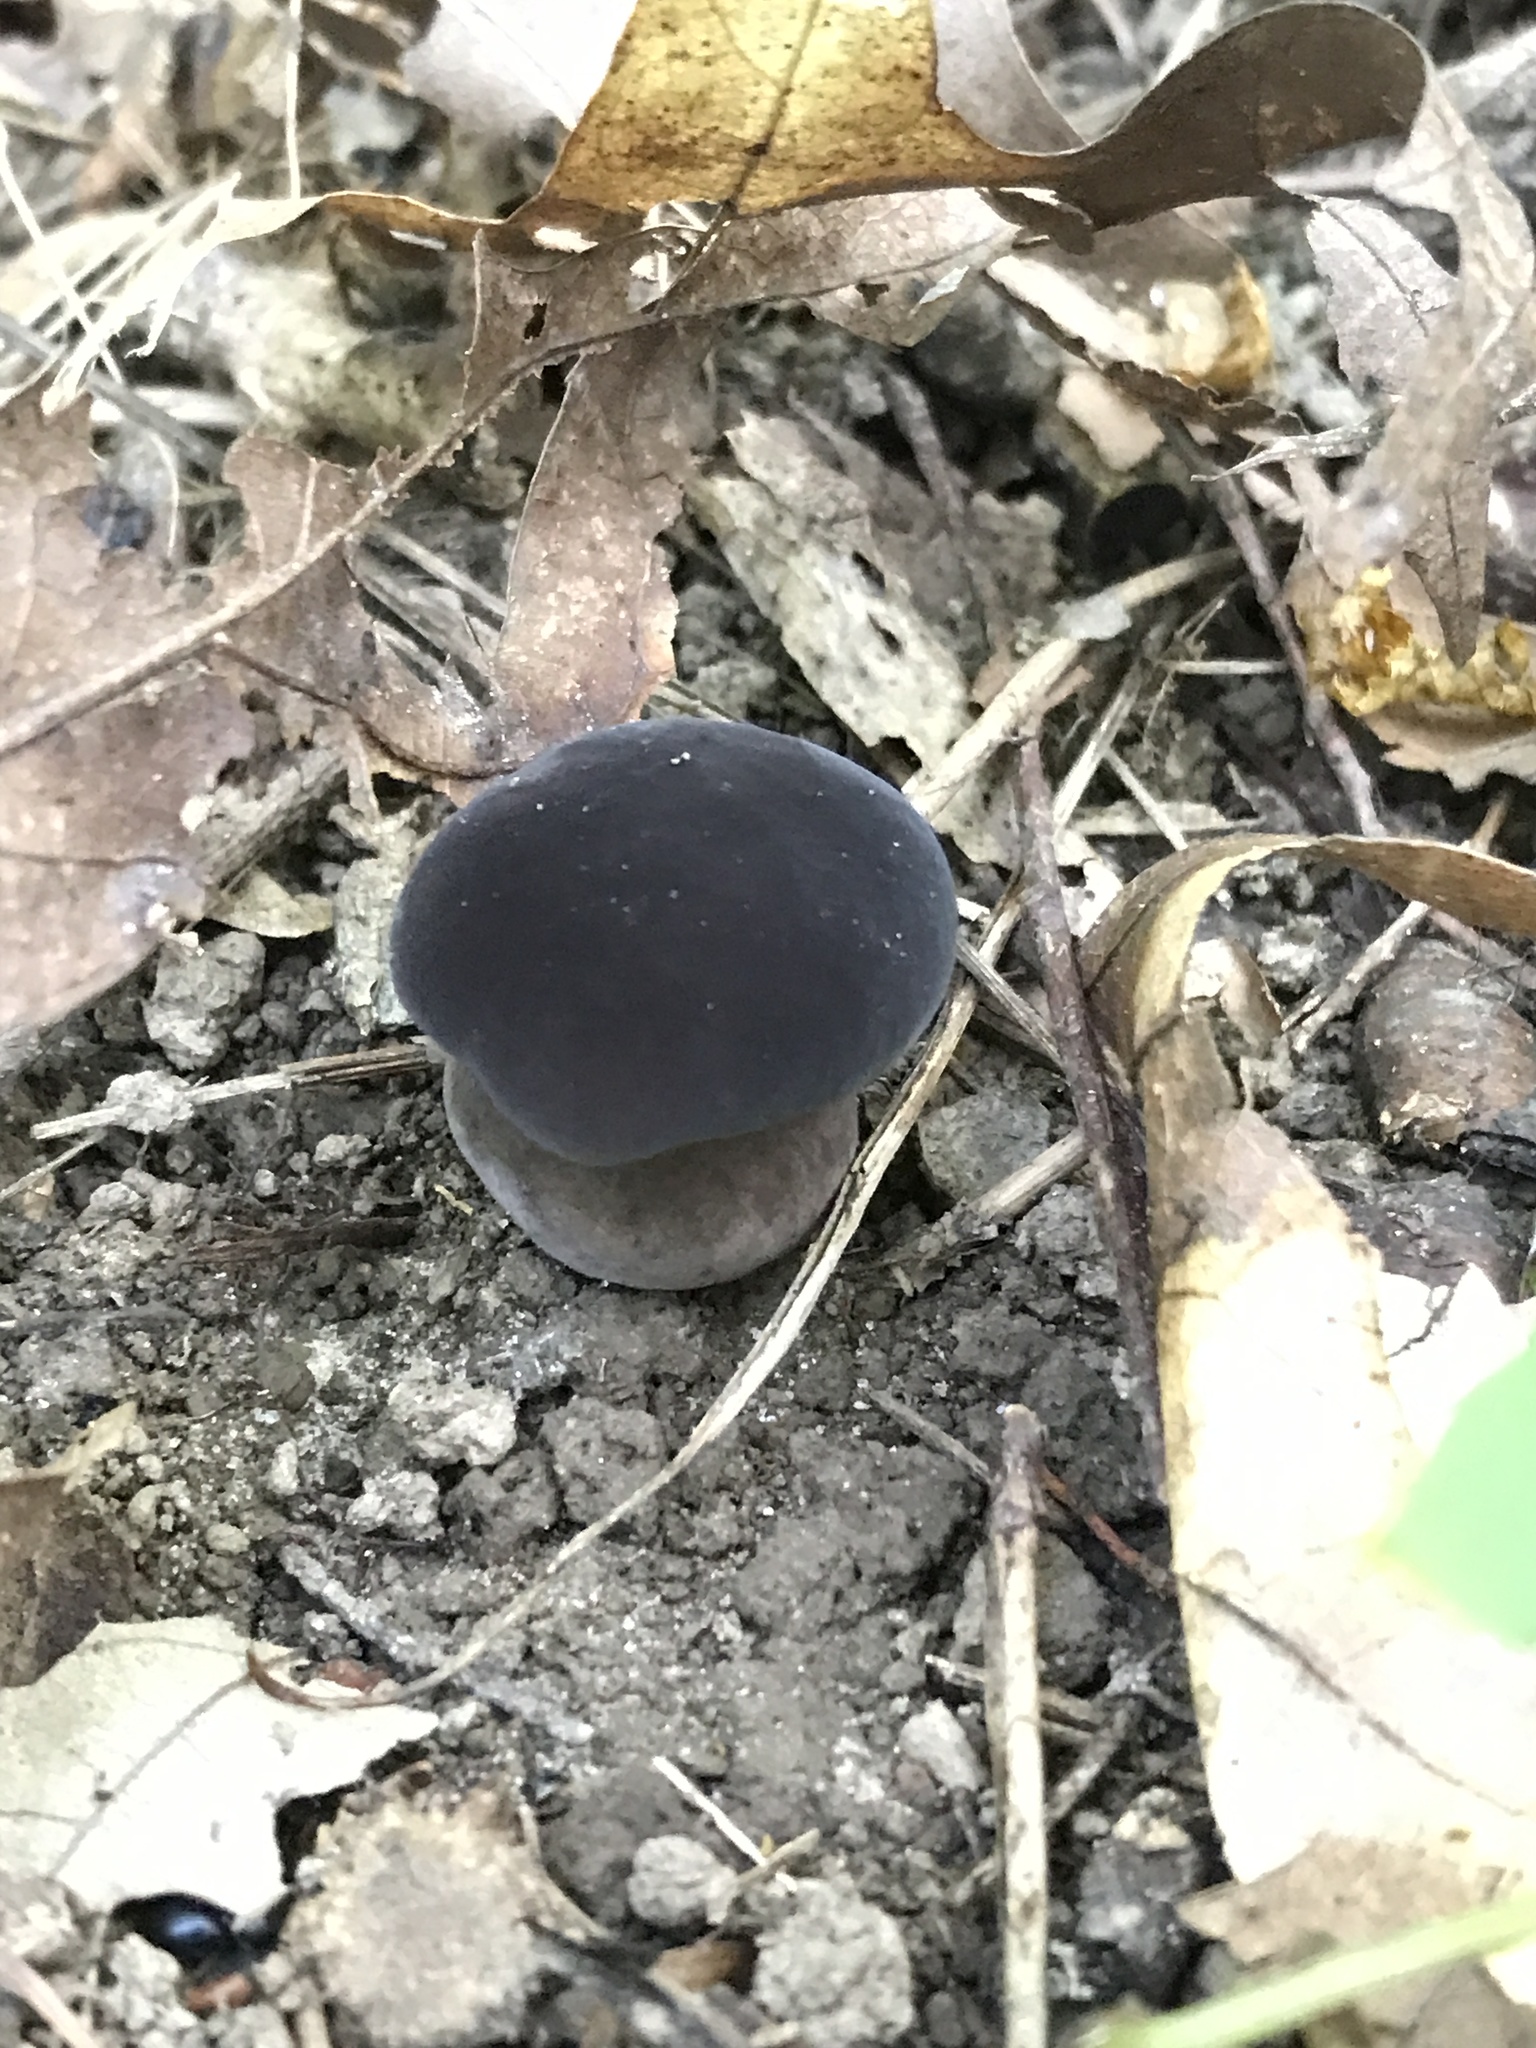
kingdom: Fungi
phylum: Basidiomycota
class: Agaricomycetes
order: Boletales
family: Boletaceae
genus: Tylopilus
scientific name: Tylopilus alboater
